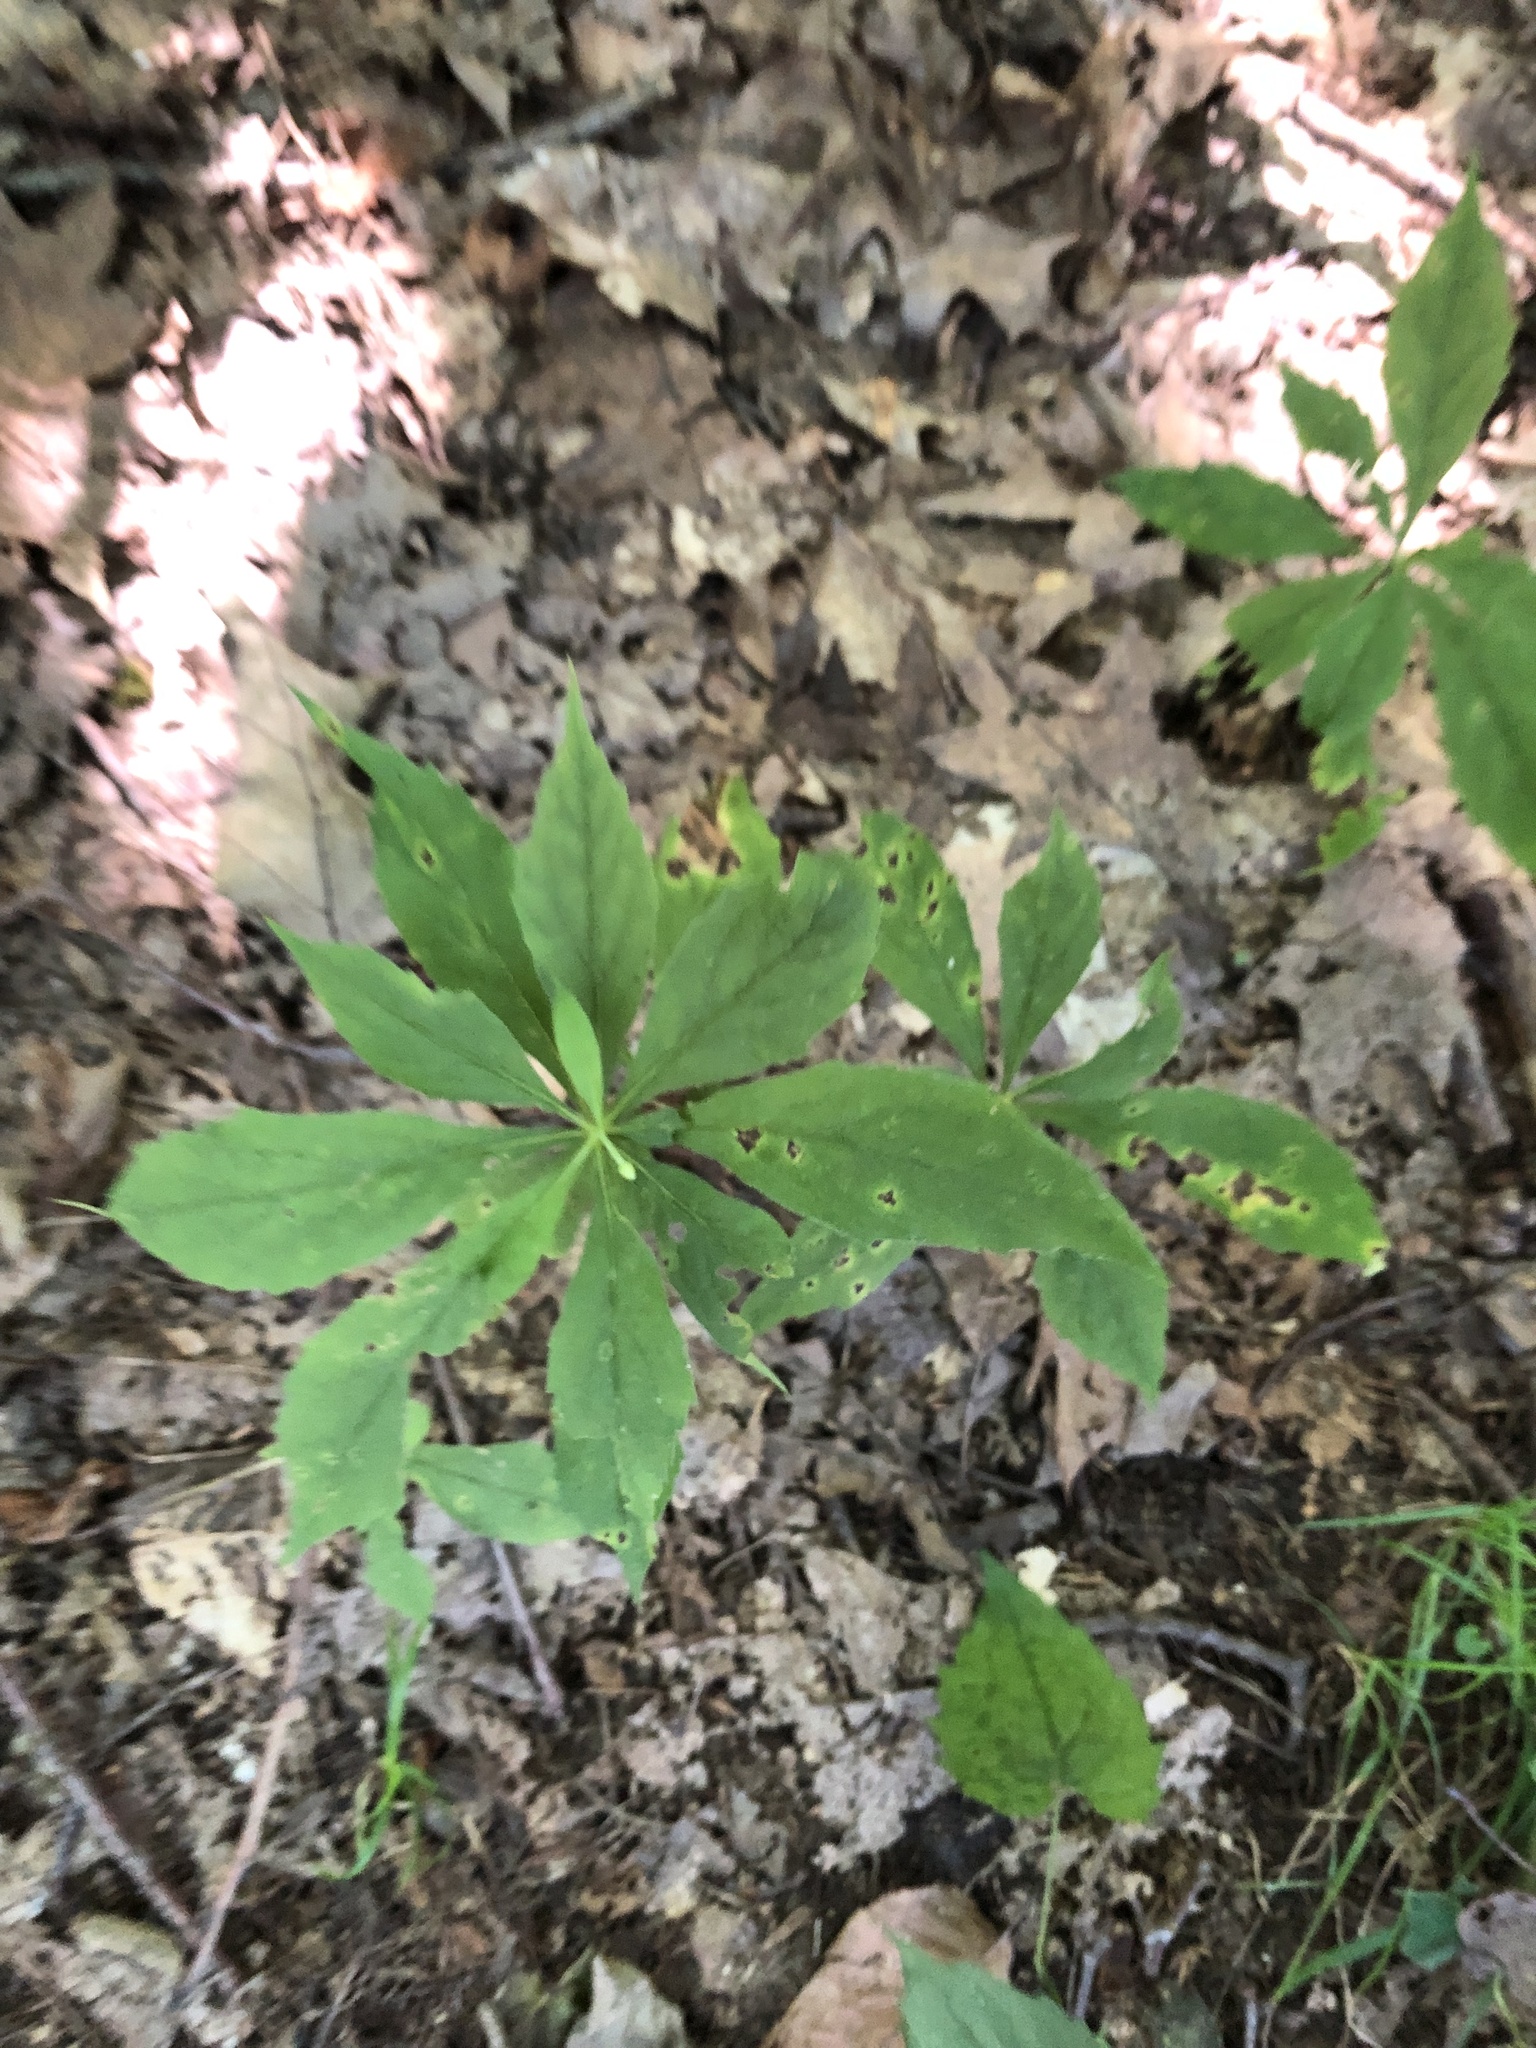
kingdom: Plantae
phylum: Tracheophyta
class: Magnoliopsida
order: Asterales
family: Asteraceae
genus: Oclemena
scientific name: Oclemena acuminata
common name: Mountain aster
